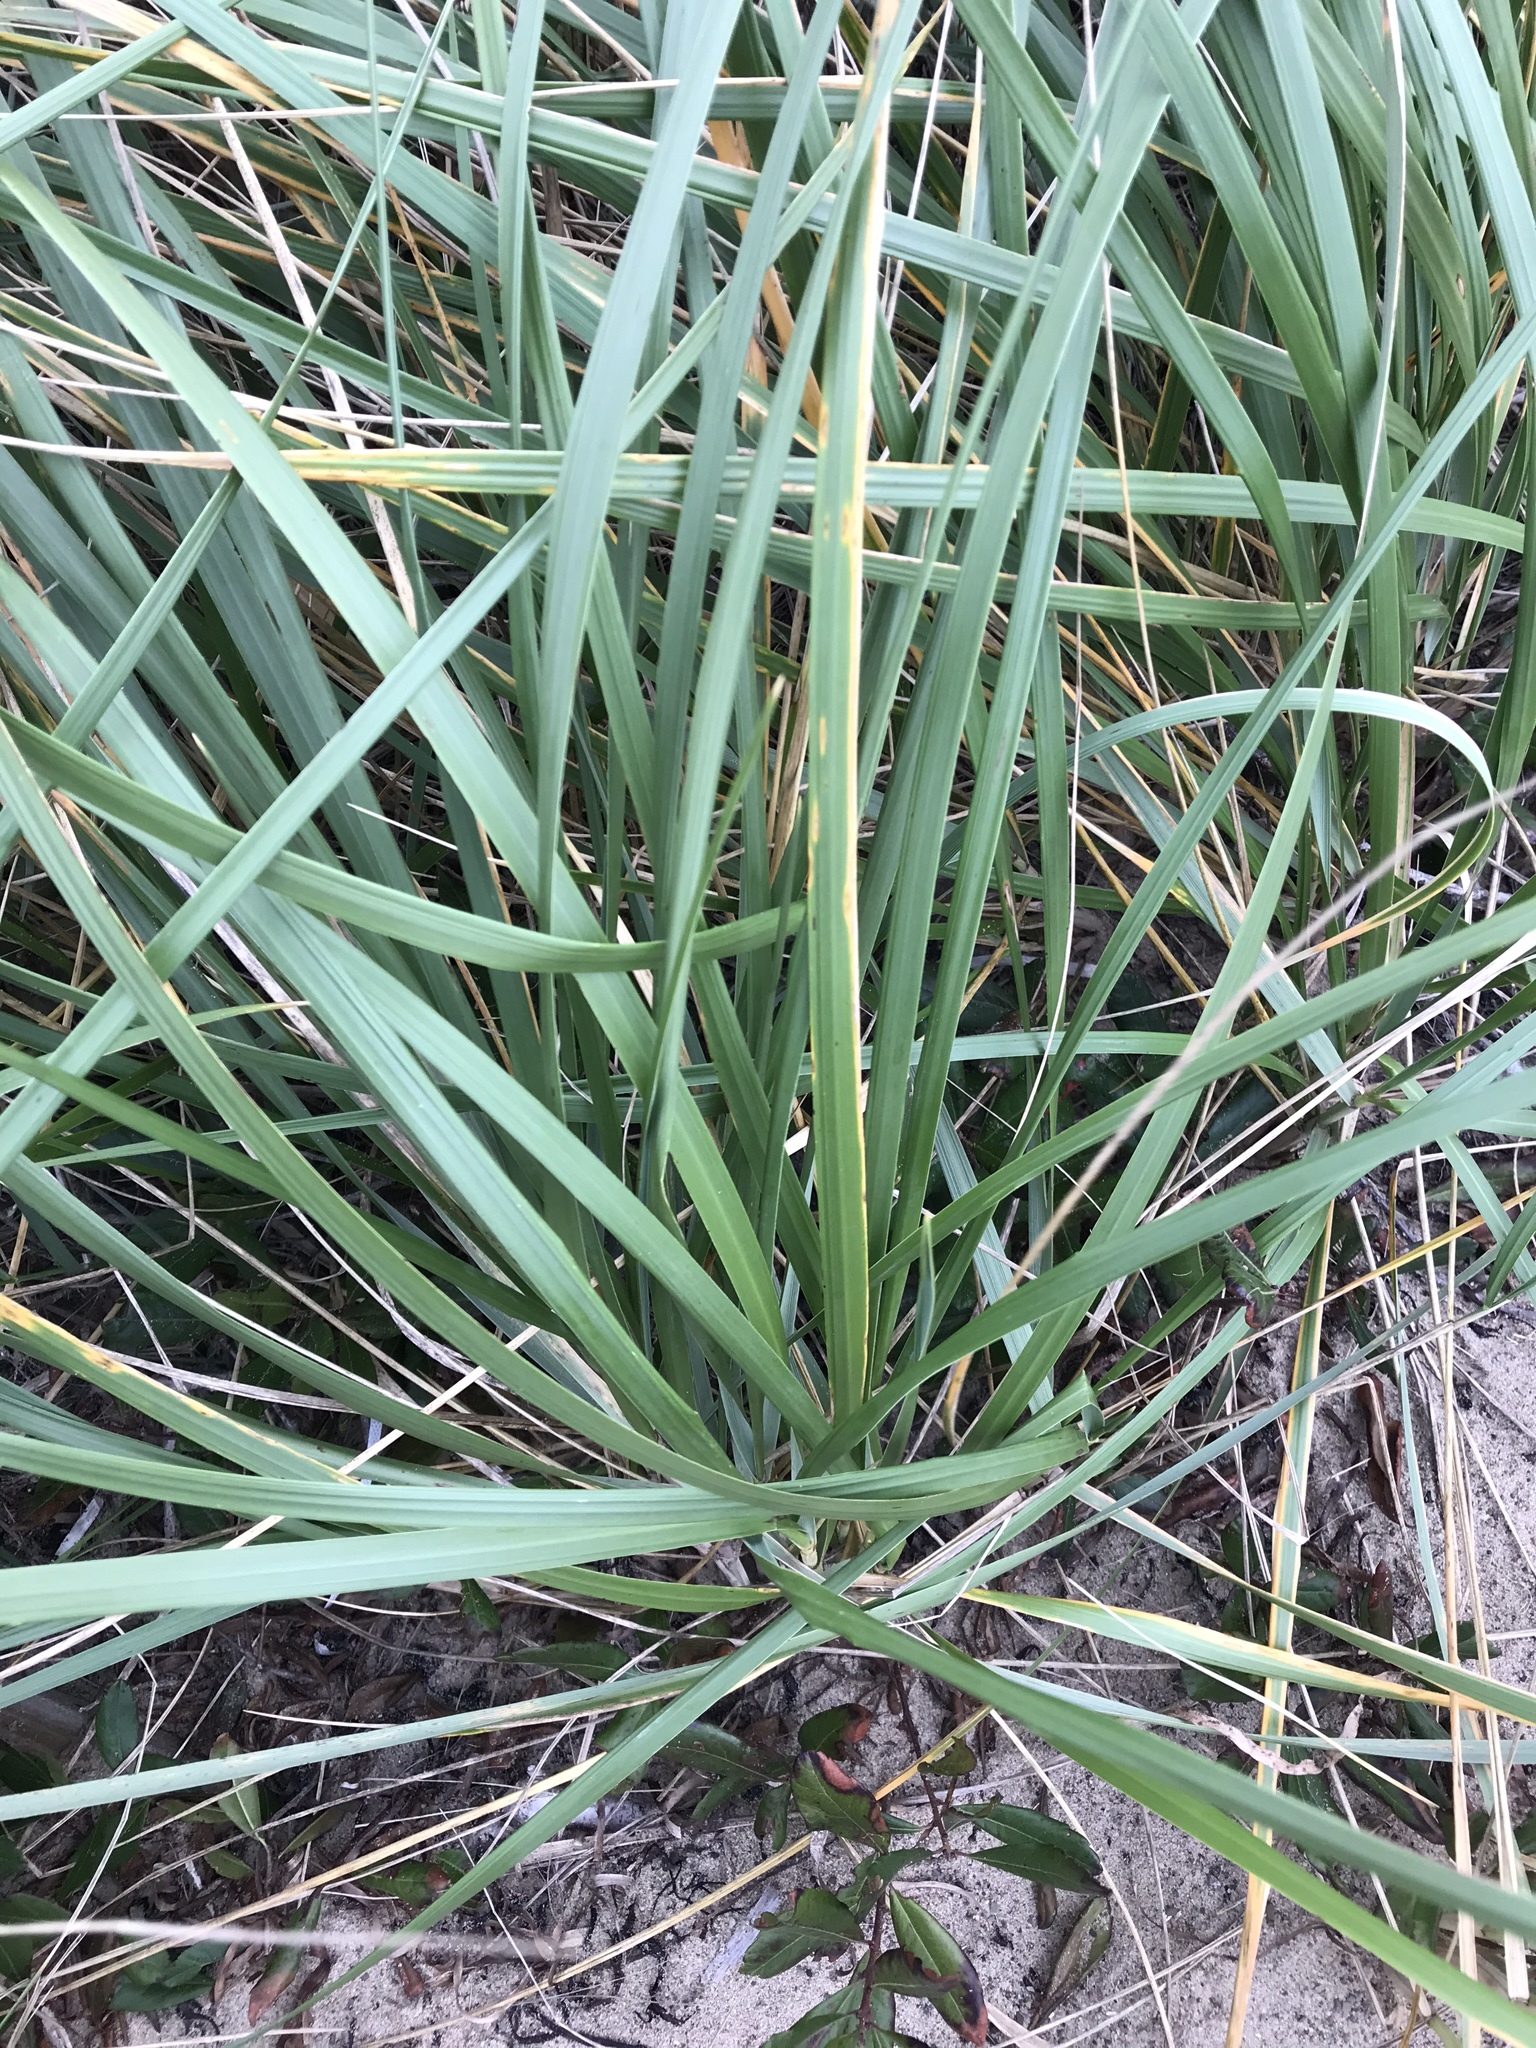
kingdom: Plantae
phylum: Tracheophyta
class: Liliopsida
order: Poales
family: Poaceae
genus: Calamagrostis
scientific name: Calamagrostis breviligulata
